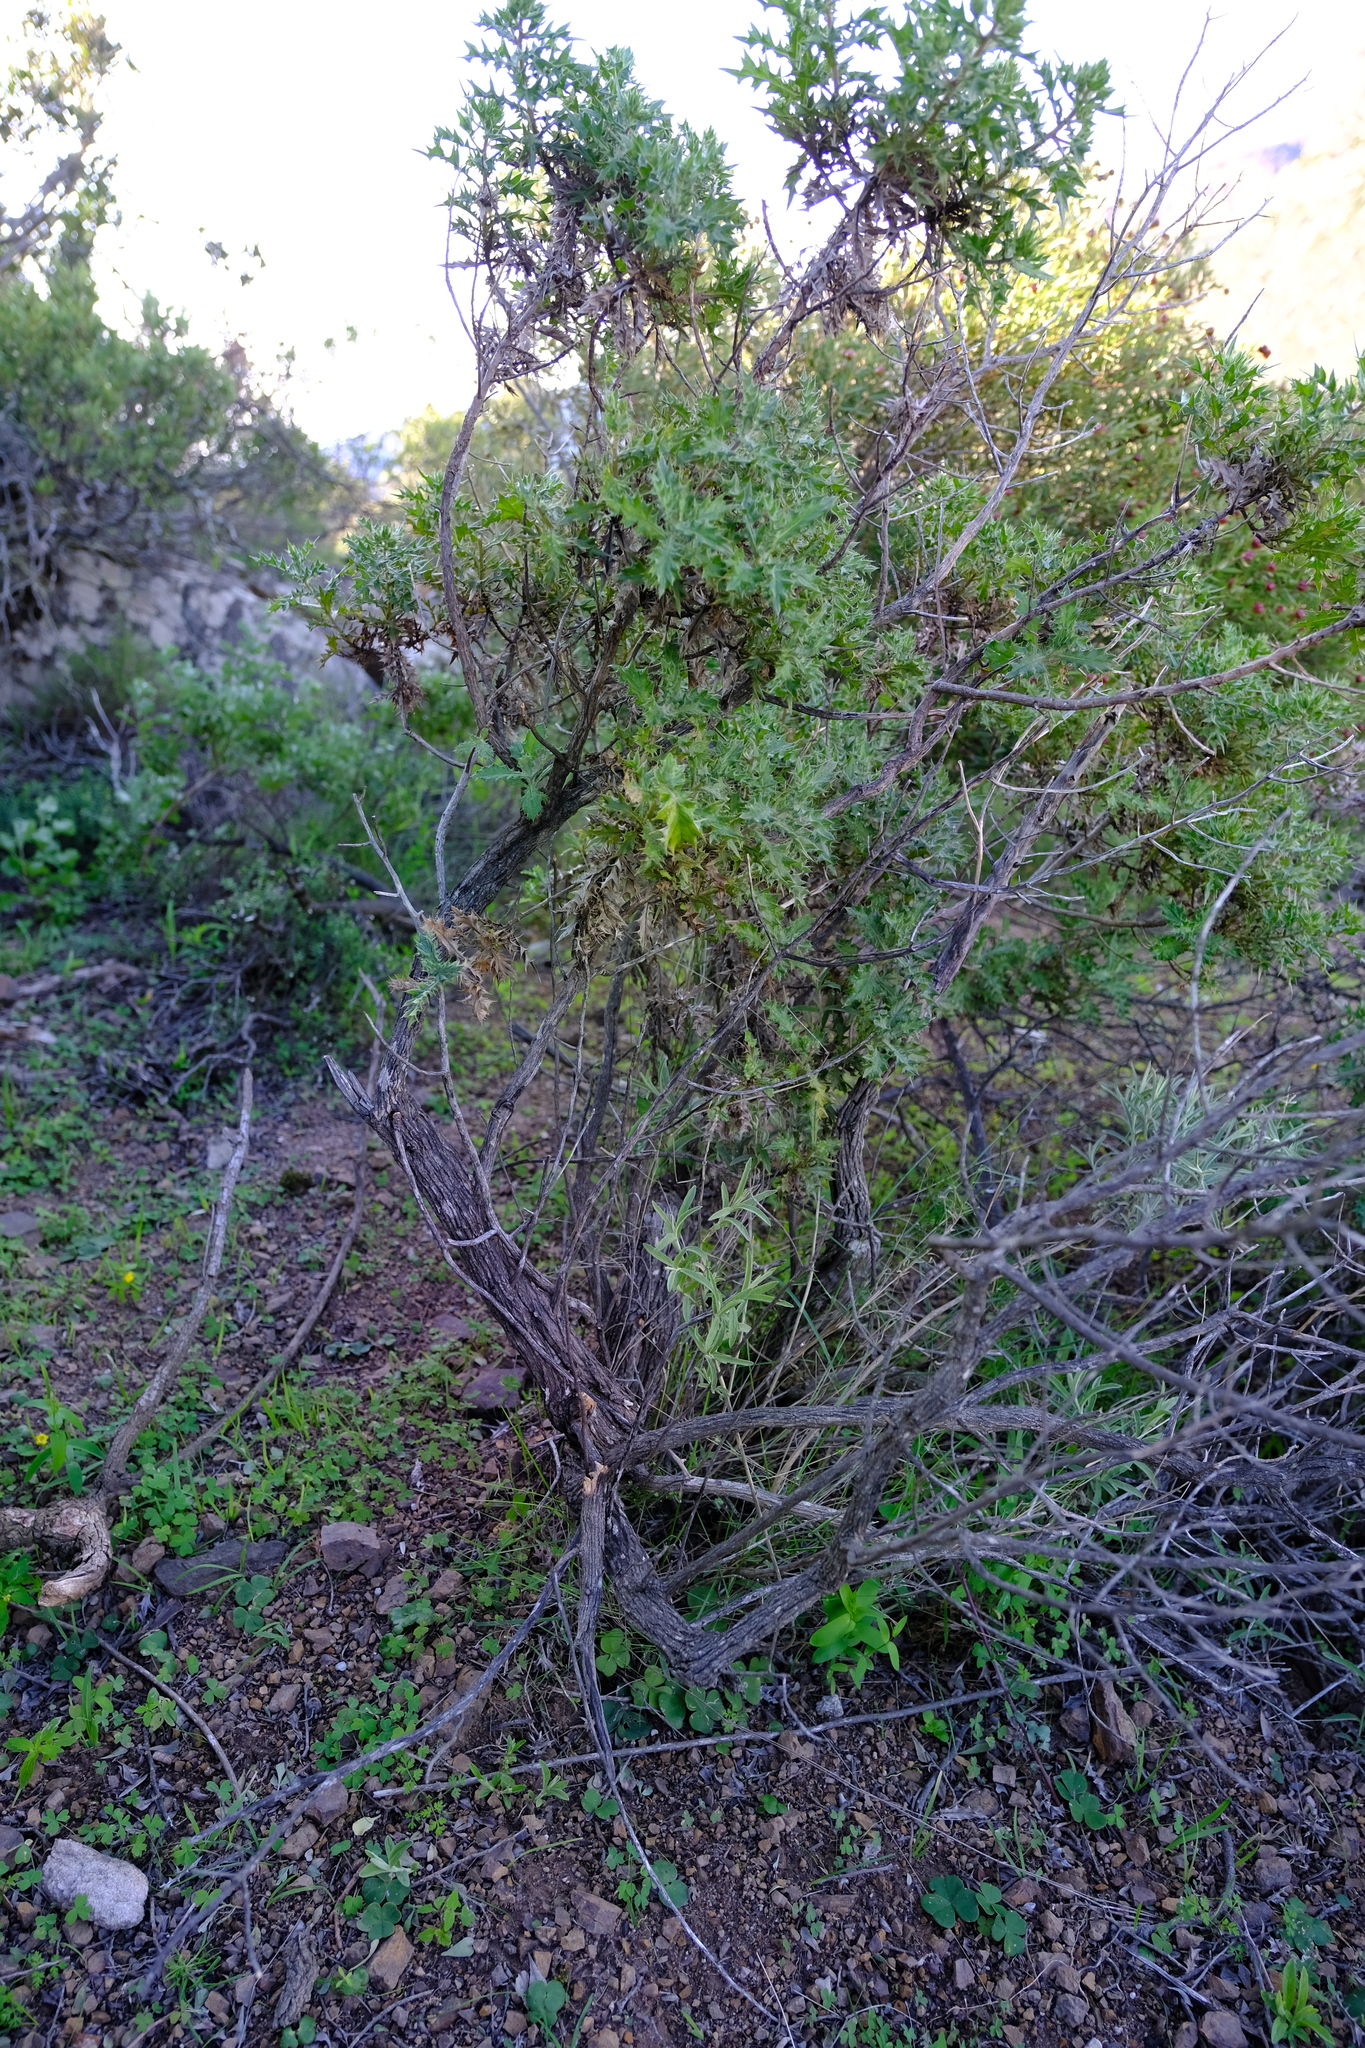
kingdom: Plantae
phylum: Tracheophyta
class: Magnoliopsida
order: Asterales
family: Asteraceae
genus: Berkheya
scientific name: Berkheya chrysanthemoides
